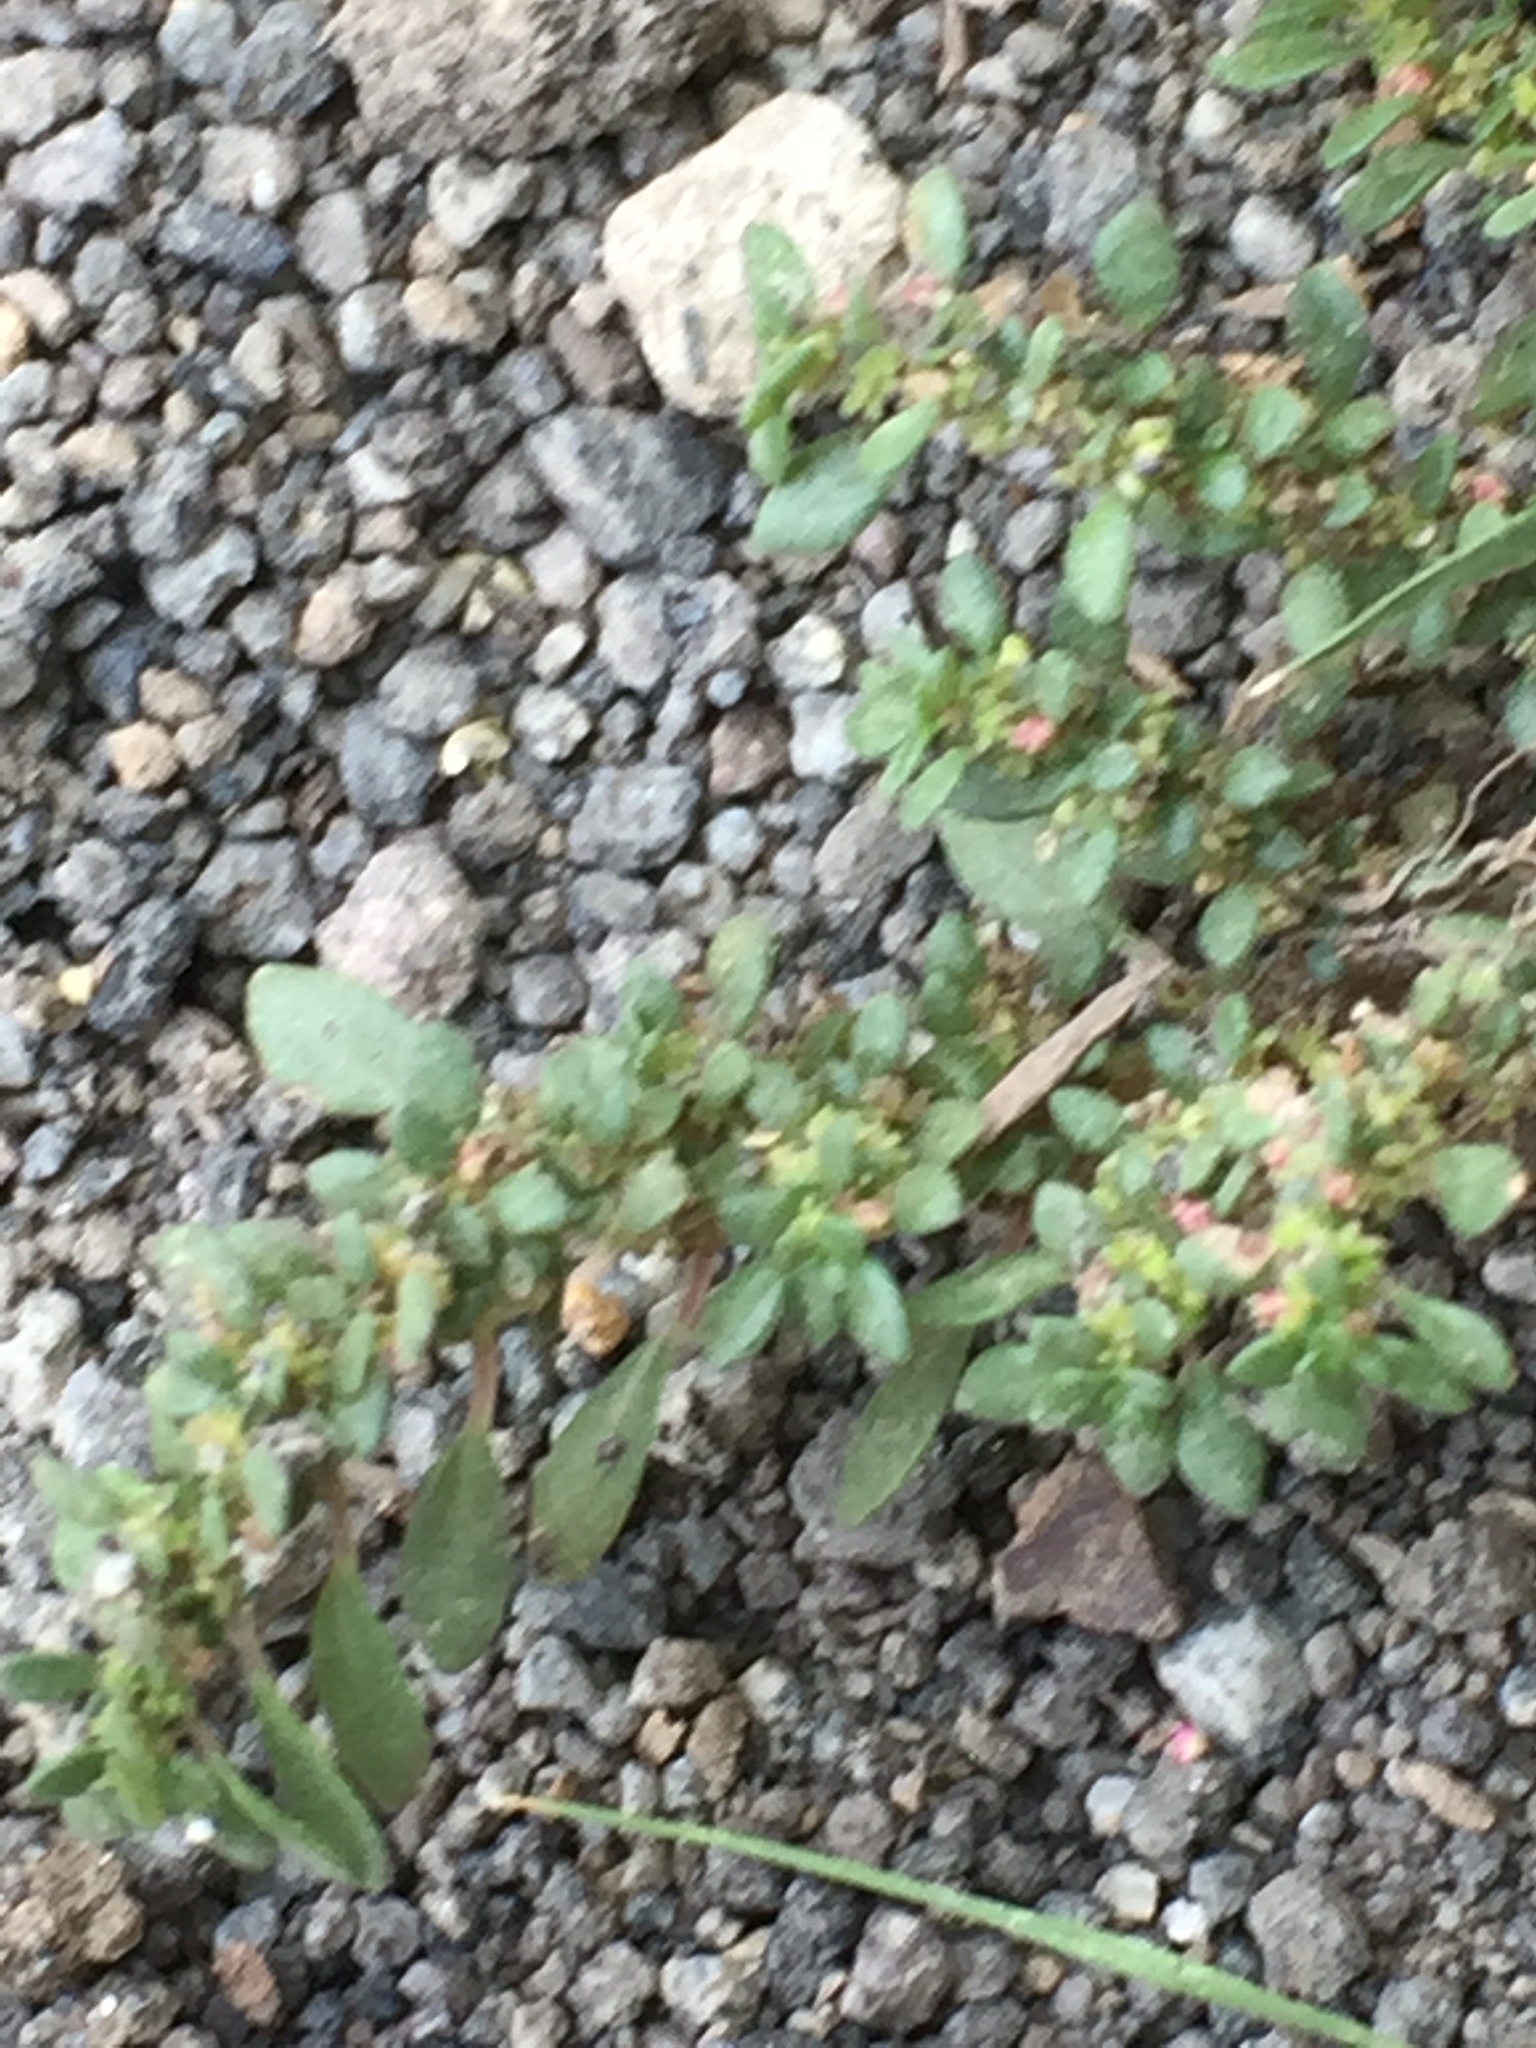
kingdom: Plantae
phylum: Tracheophyta
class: Magnoliopsida
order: Rosales
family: Urticaceae
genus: Pilea
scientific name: Pilea microphylla
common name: Artillery-plant
